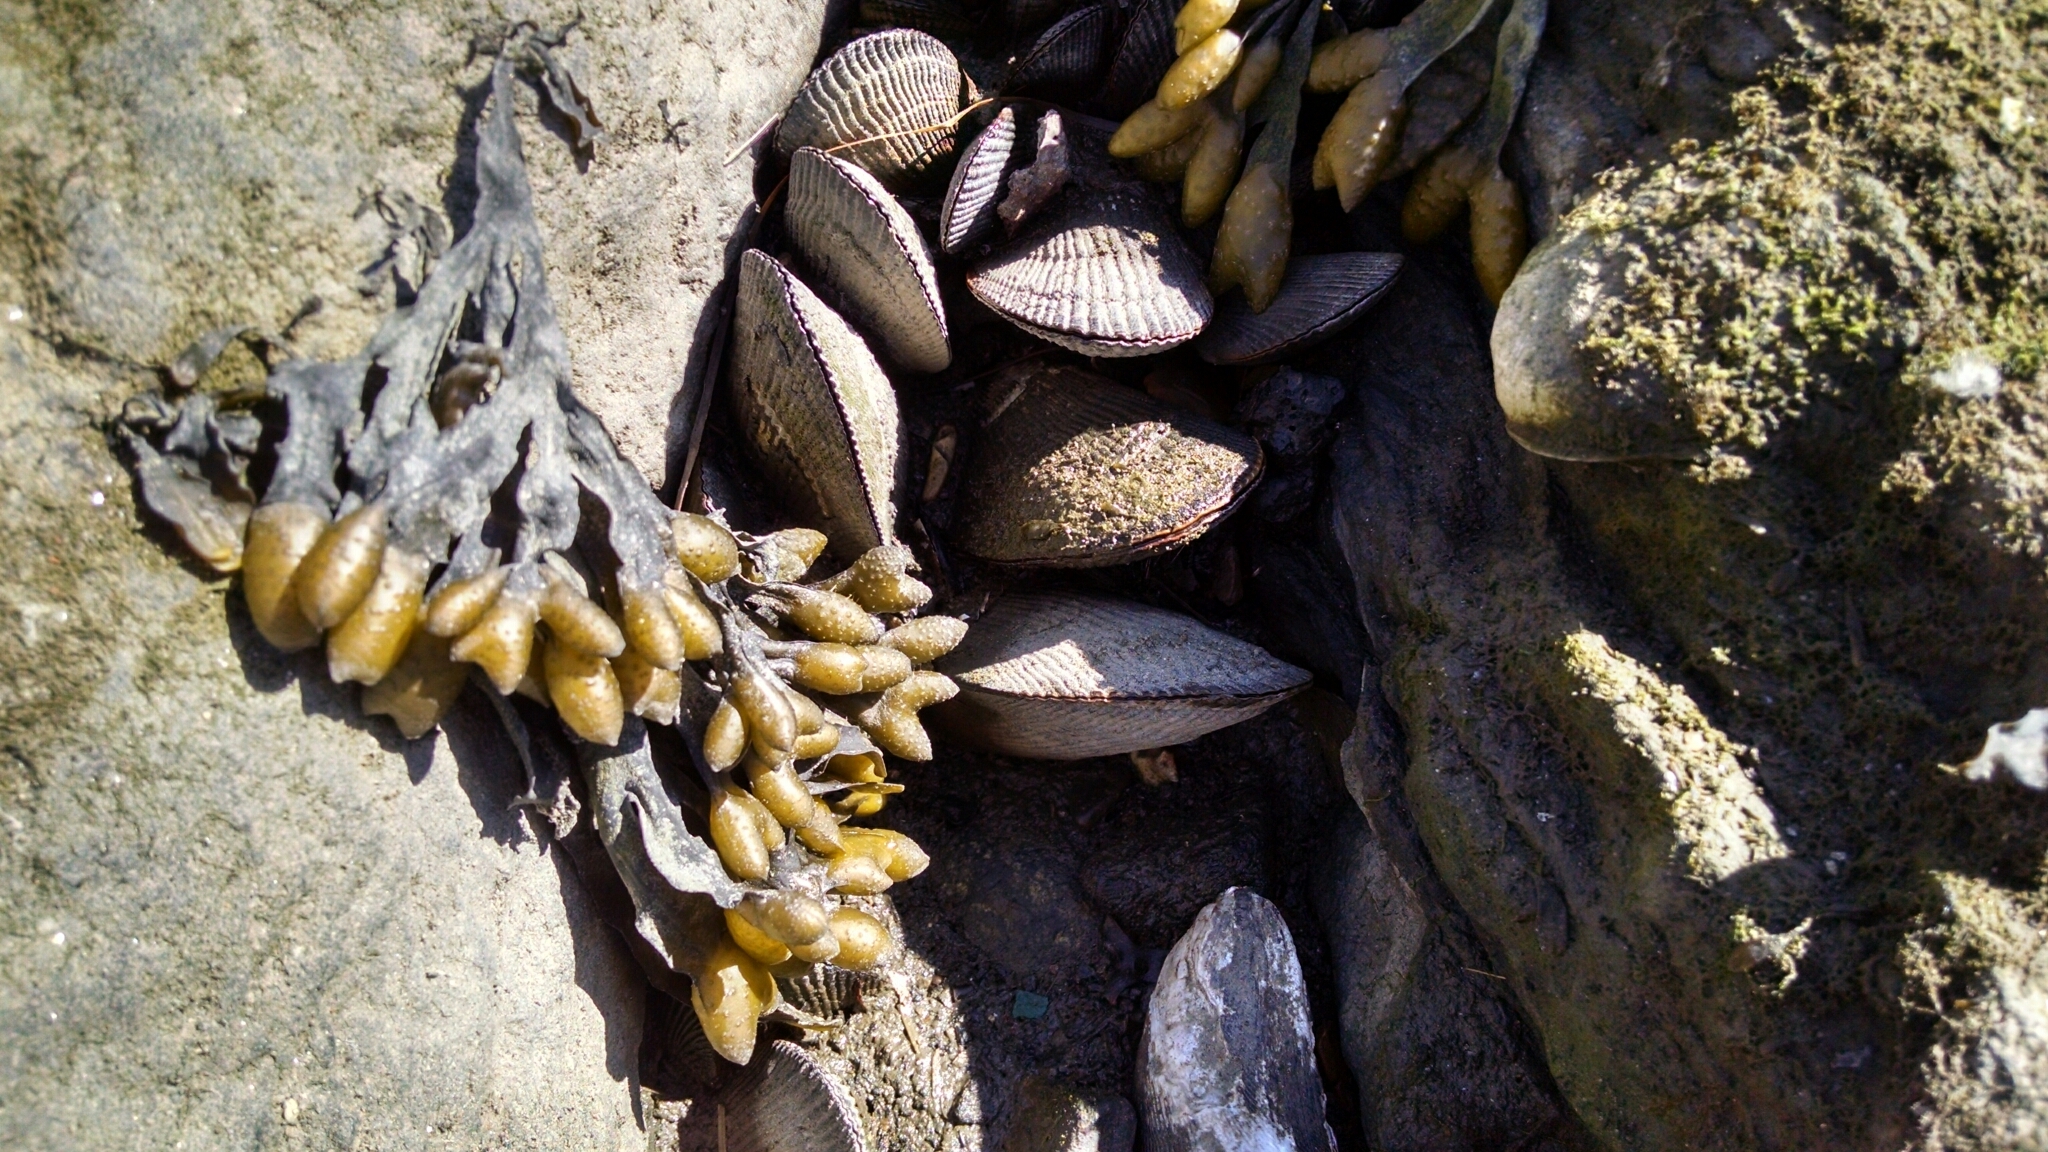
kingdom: Animalia
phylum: Mollusca
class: Bivalvia
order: Mytilida
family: Mytilidae
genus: Geukensia
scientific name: Geukensia demissa
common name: Ribbed mussel
